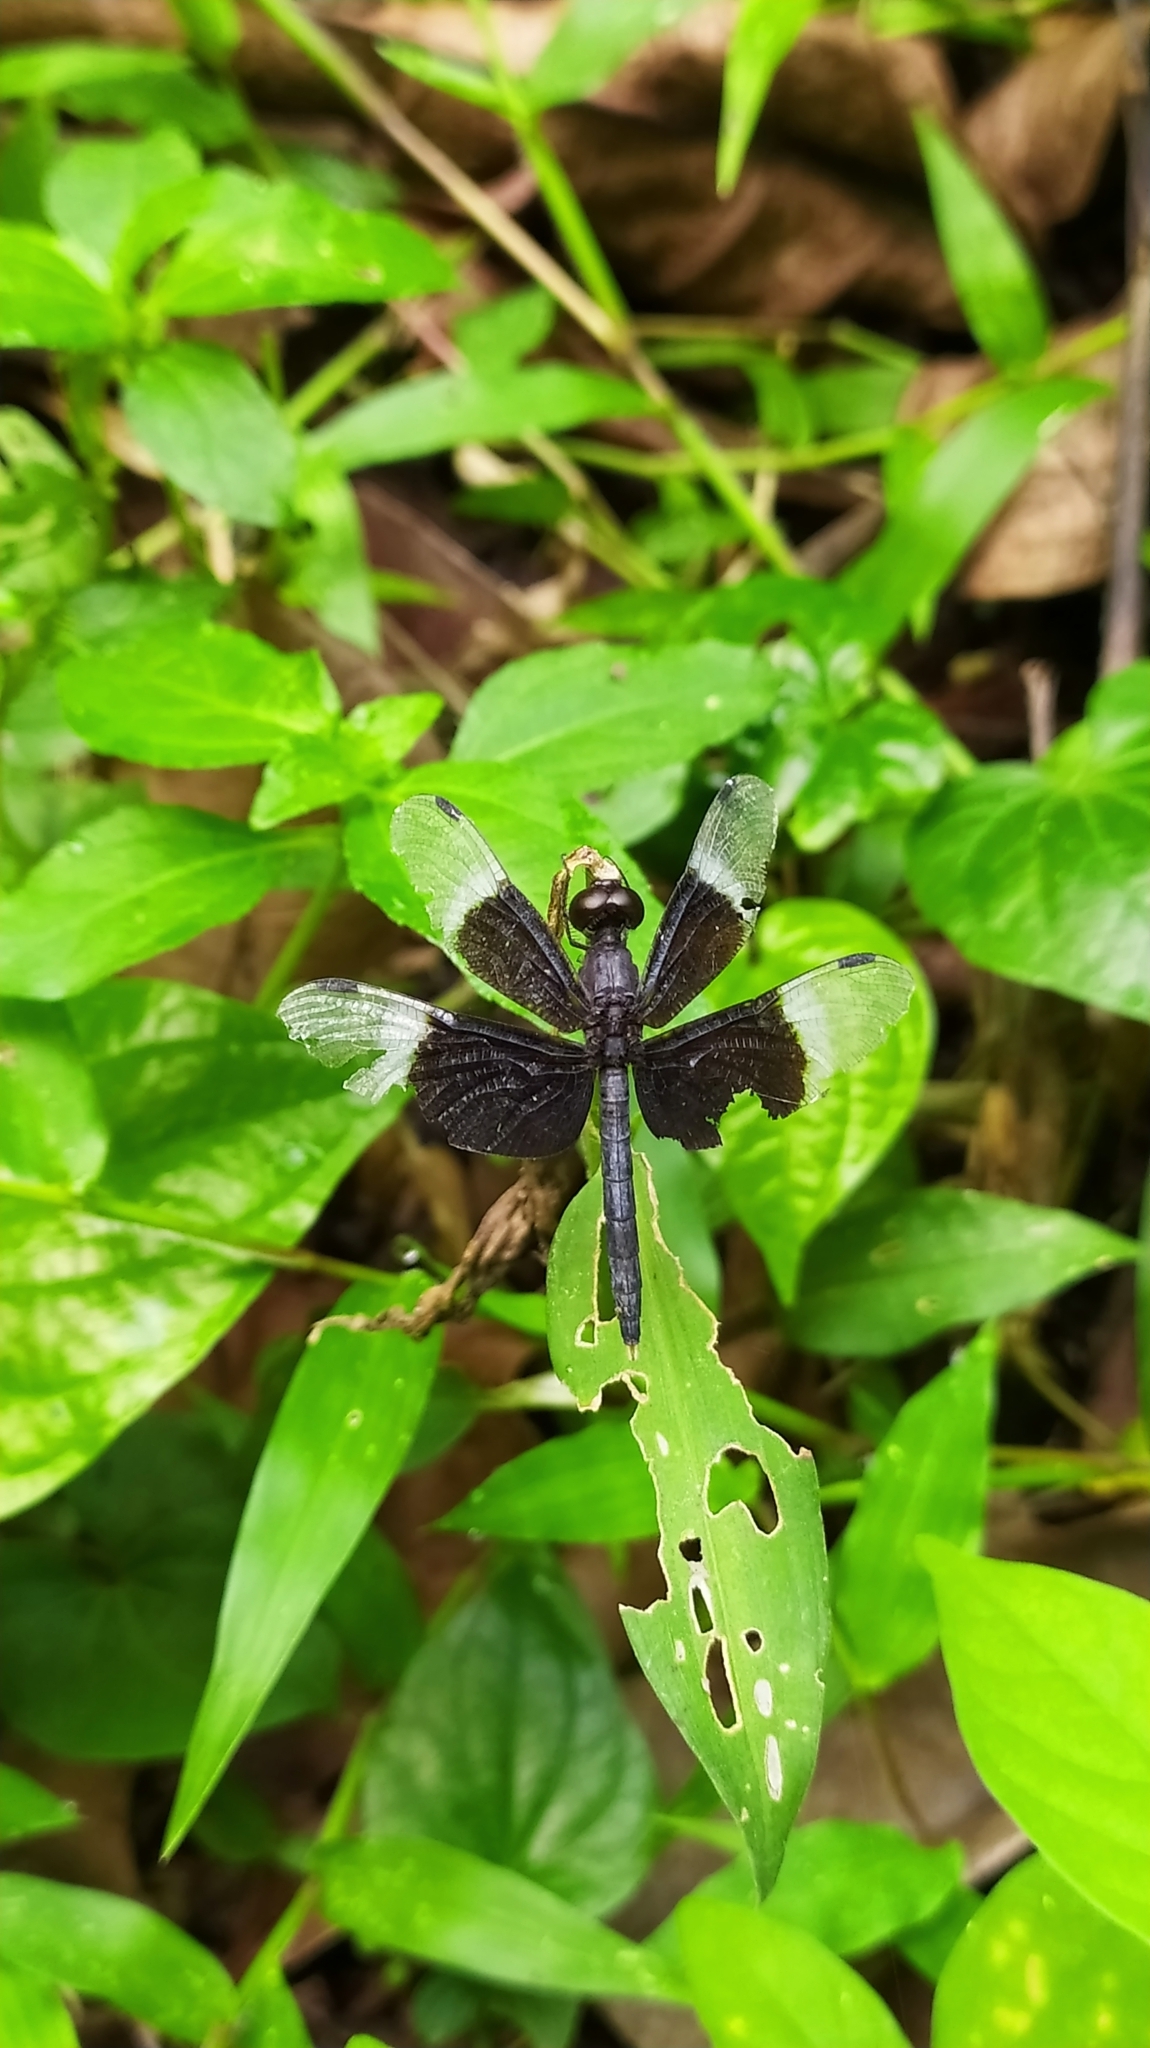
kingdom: Animalia
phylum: Arthropoda
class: Insecta
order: Odonata
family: Libellulidae
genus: Neurothemis
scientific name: Neurothemis tullia
